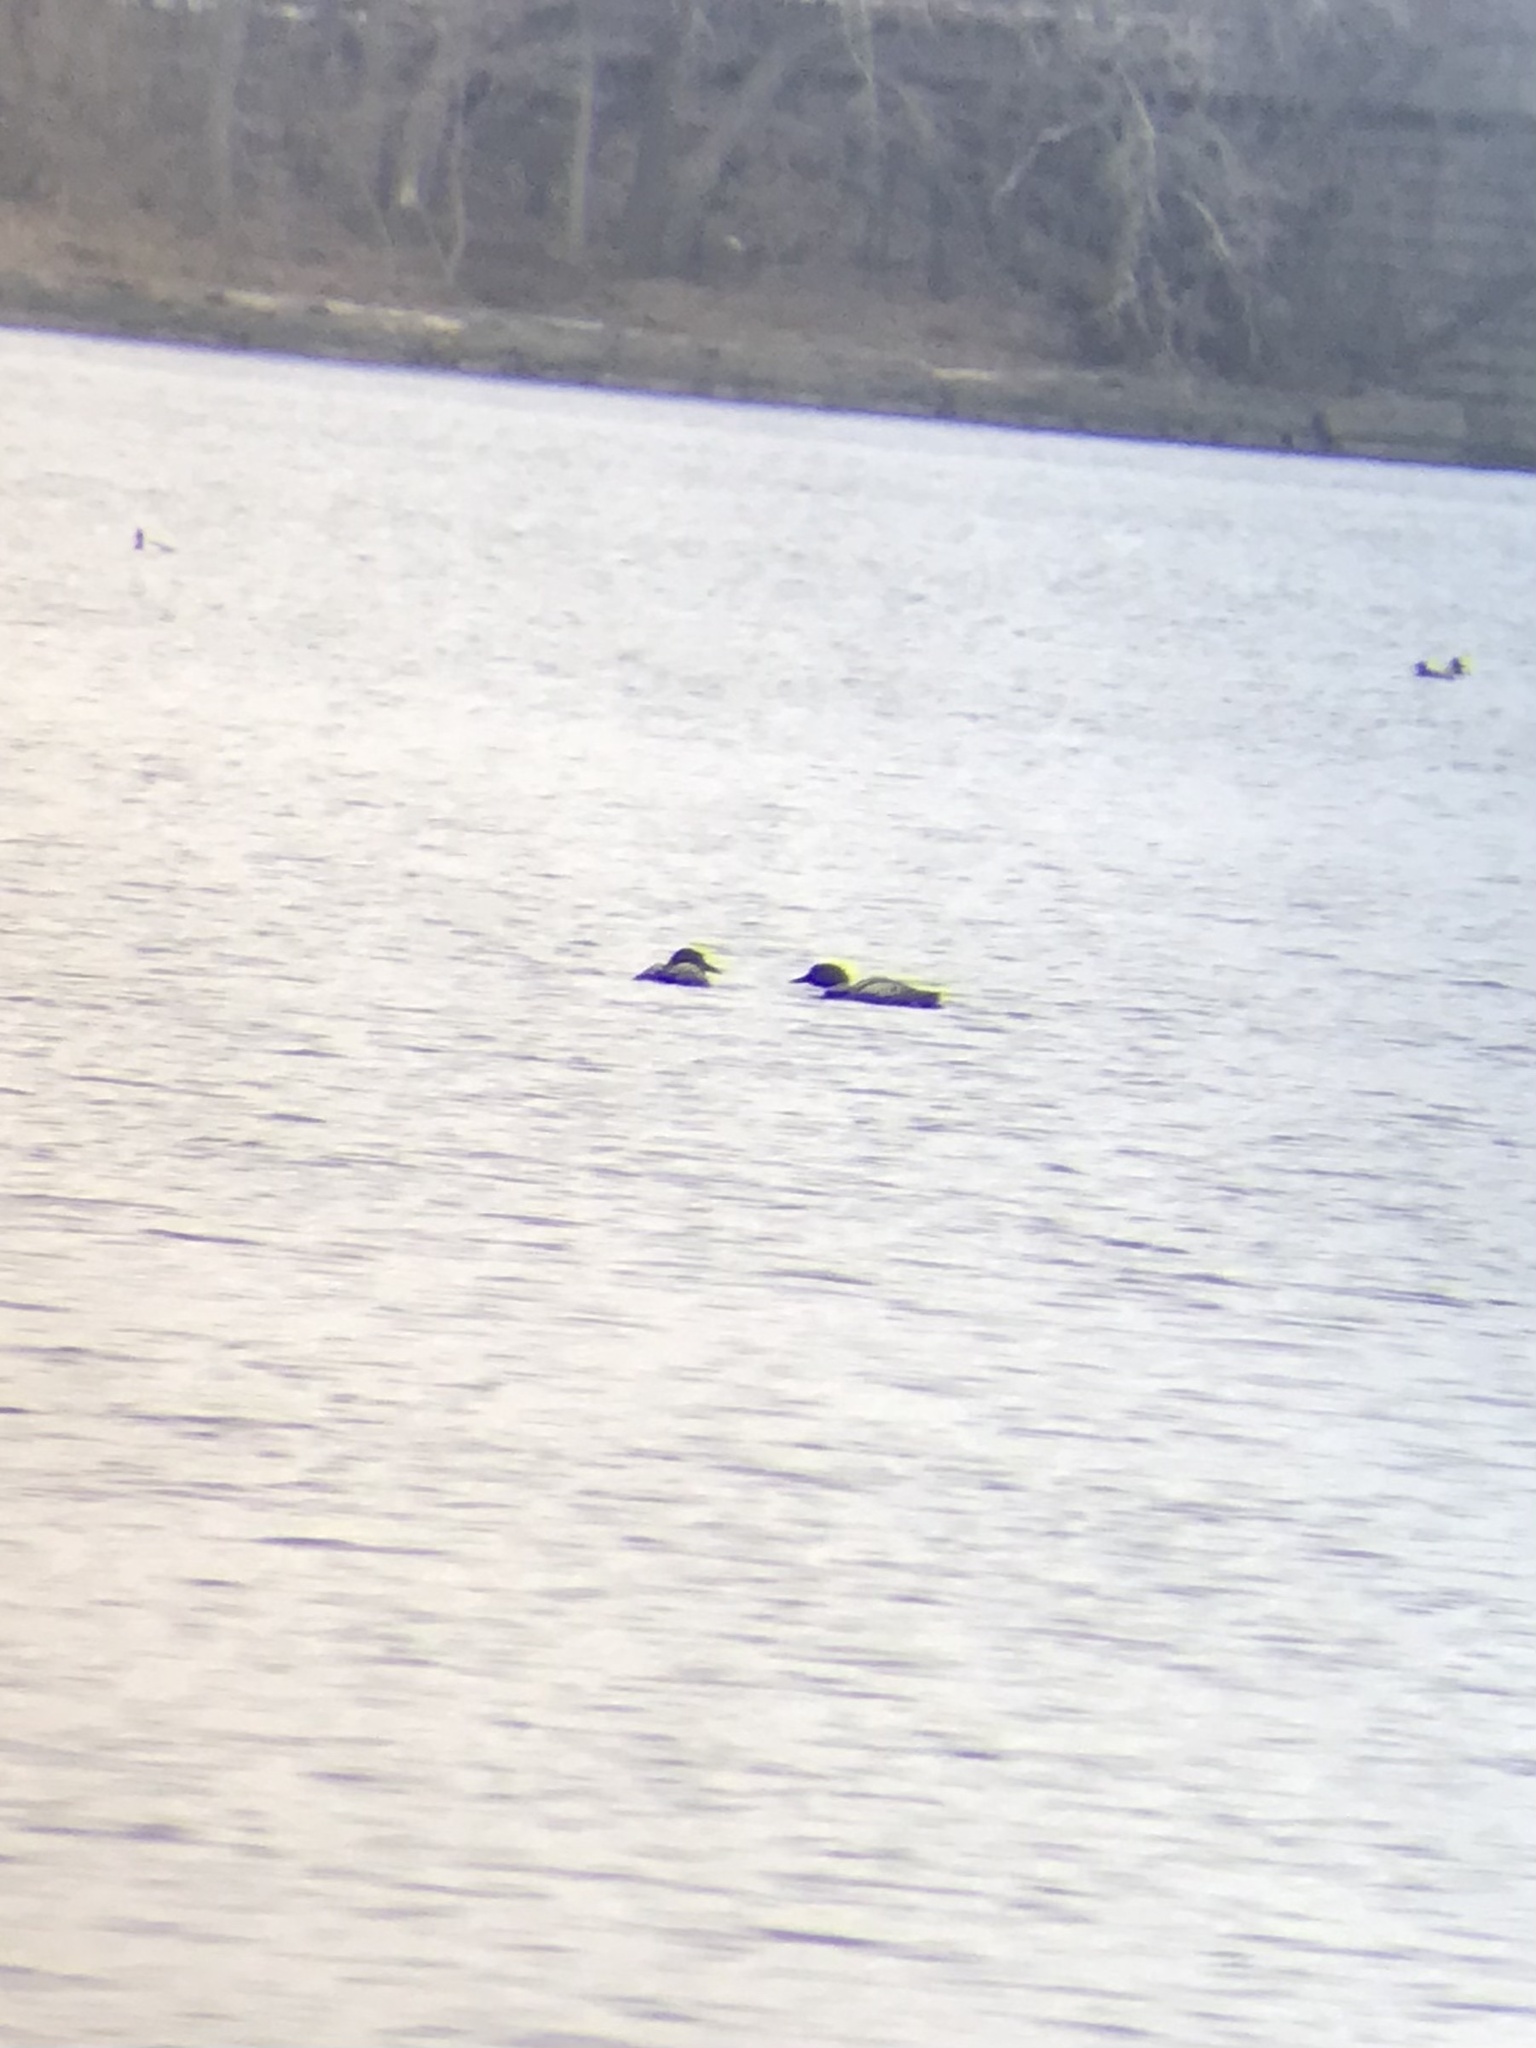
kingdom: Animalia
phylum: Chordata
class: Aves
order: Gaviiformes
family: Gaviidae
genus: Gavia
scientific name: Gavia immer
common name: Common loon
